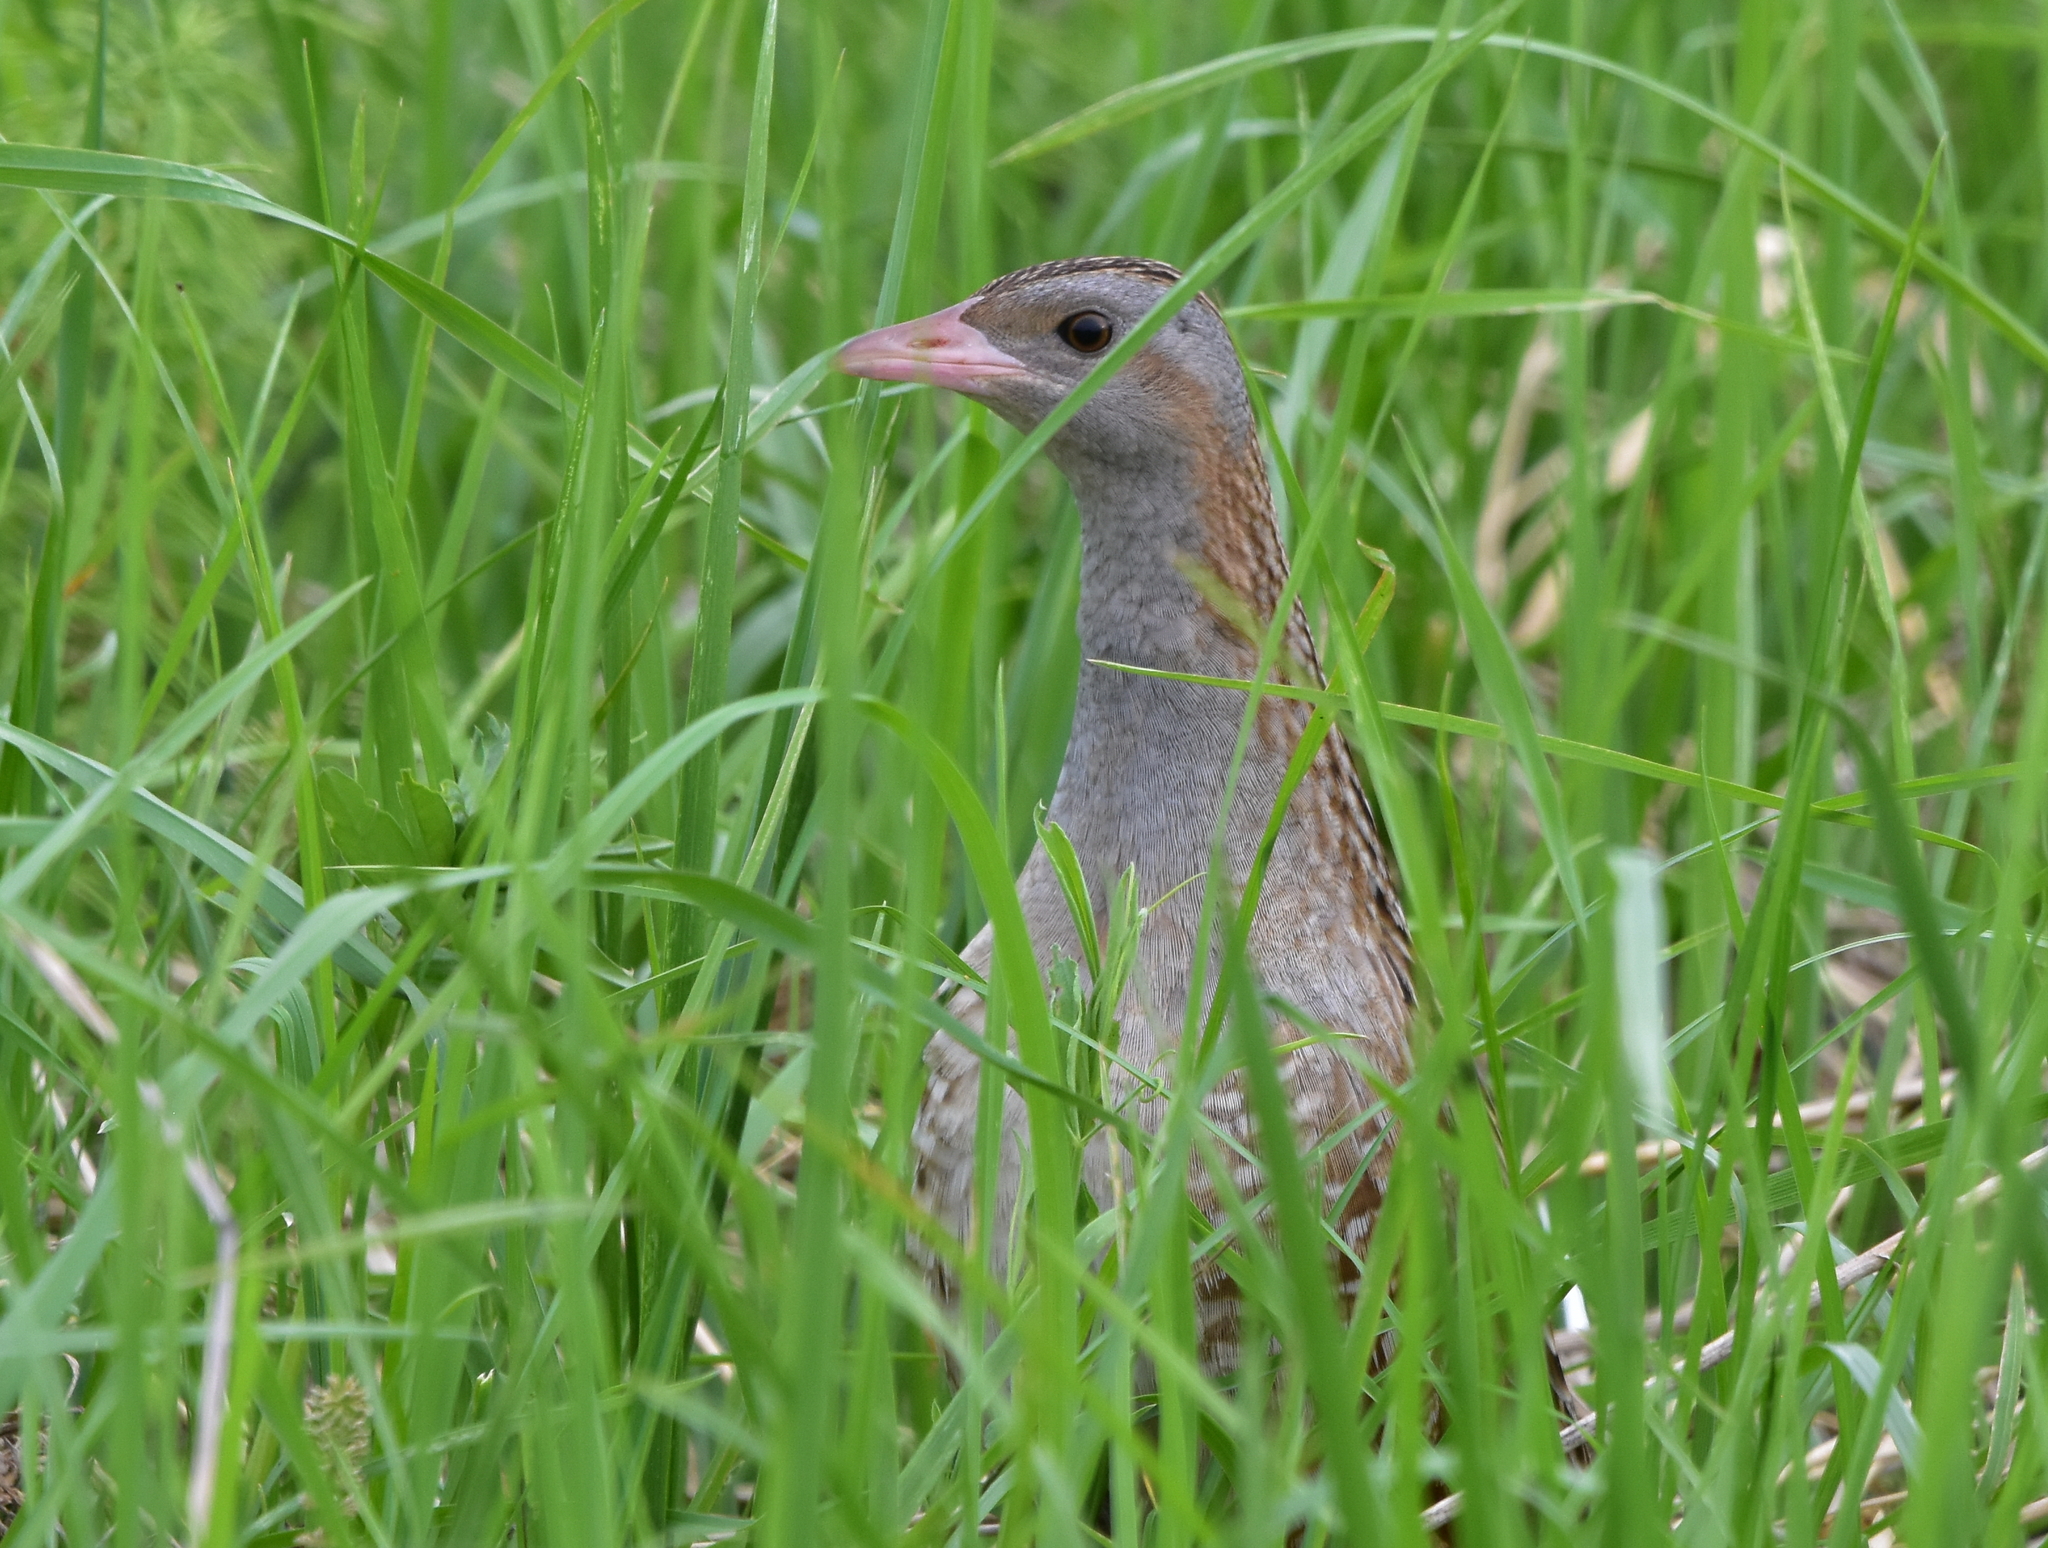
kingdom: Animalia
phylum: Chordata
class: Aves
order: Gruiformes
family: Rallidae
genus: Crex
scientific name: Crex crex
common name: Corn crake
